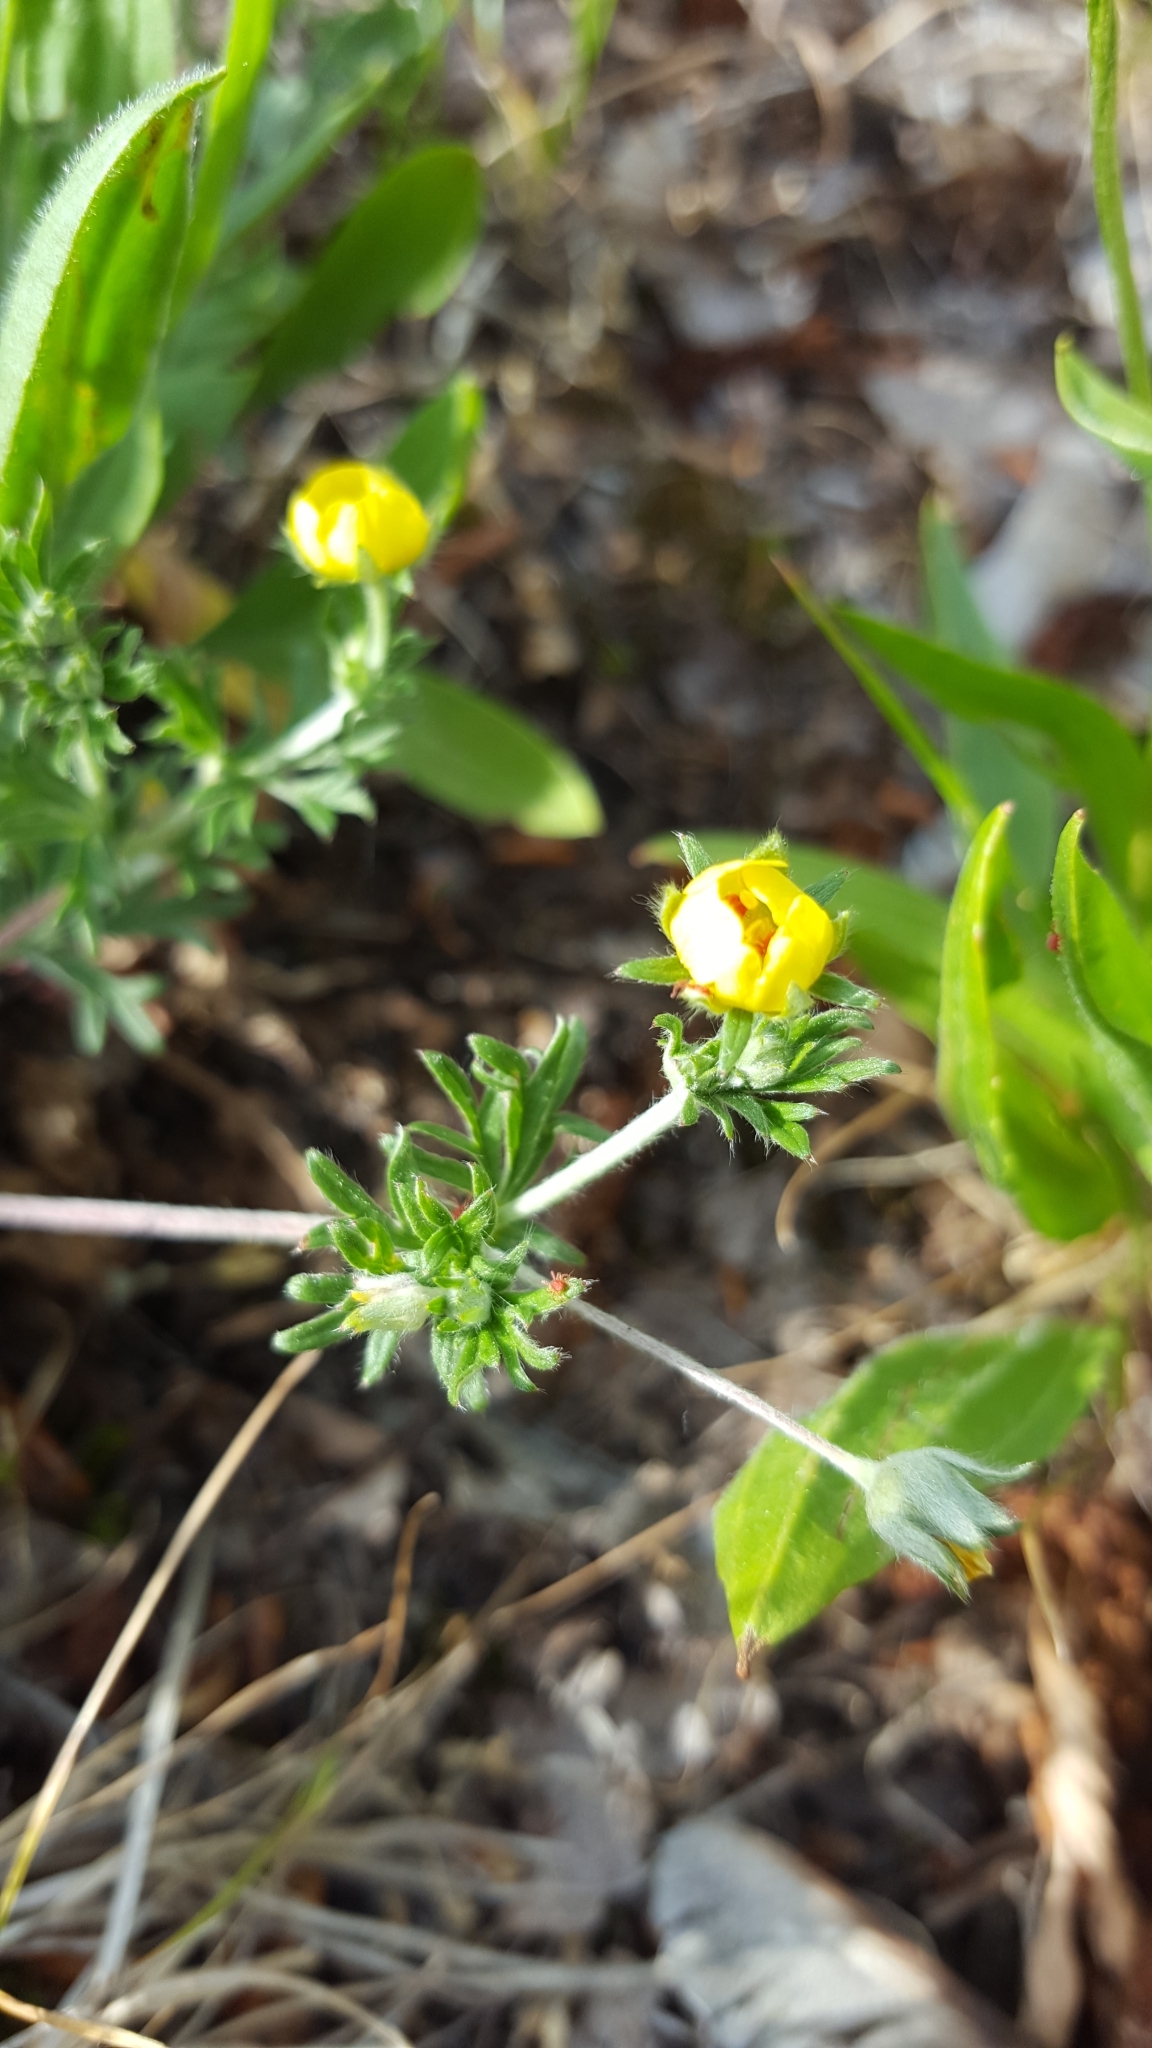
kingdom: Plantae
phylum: Tracheophyta
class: Magnoliopsida
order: Rosales
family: Rosaceae
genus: Potentilla
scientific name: Potentilla argentea
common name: Hoary cinquefoil
